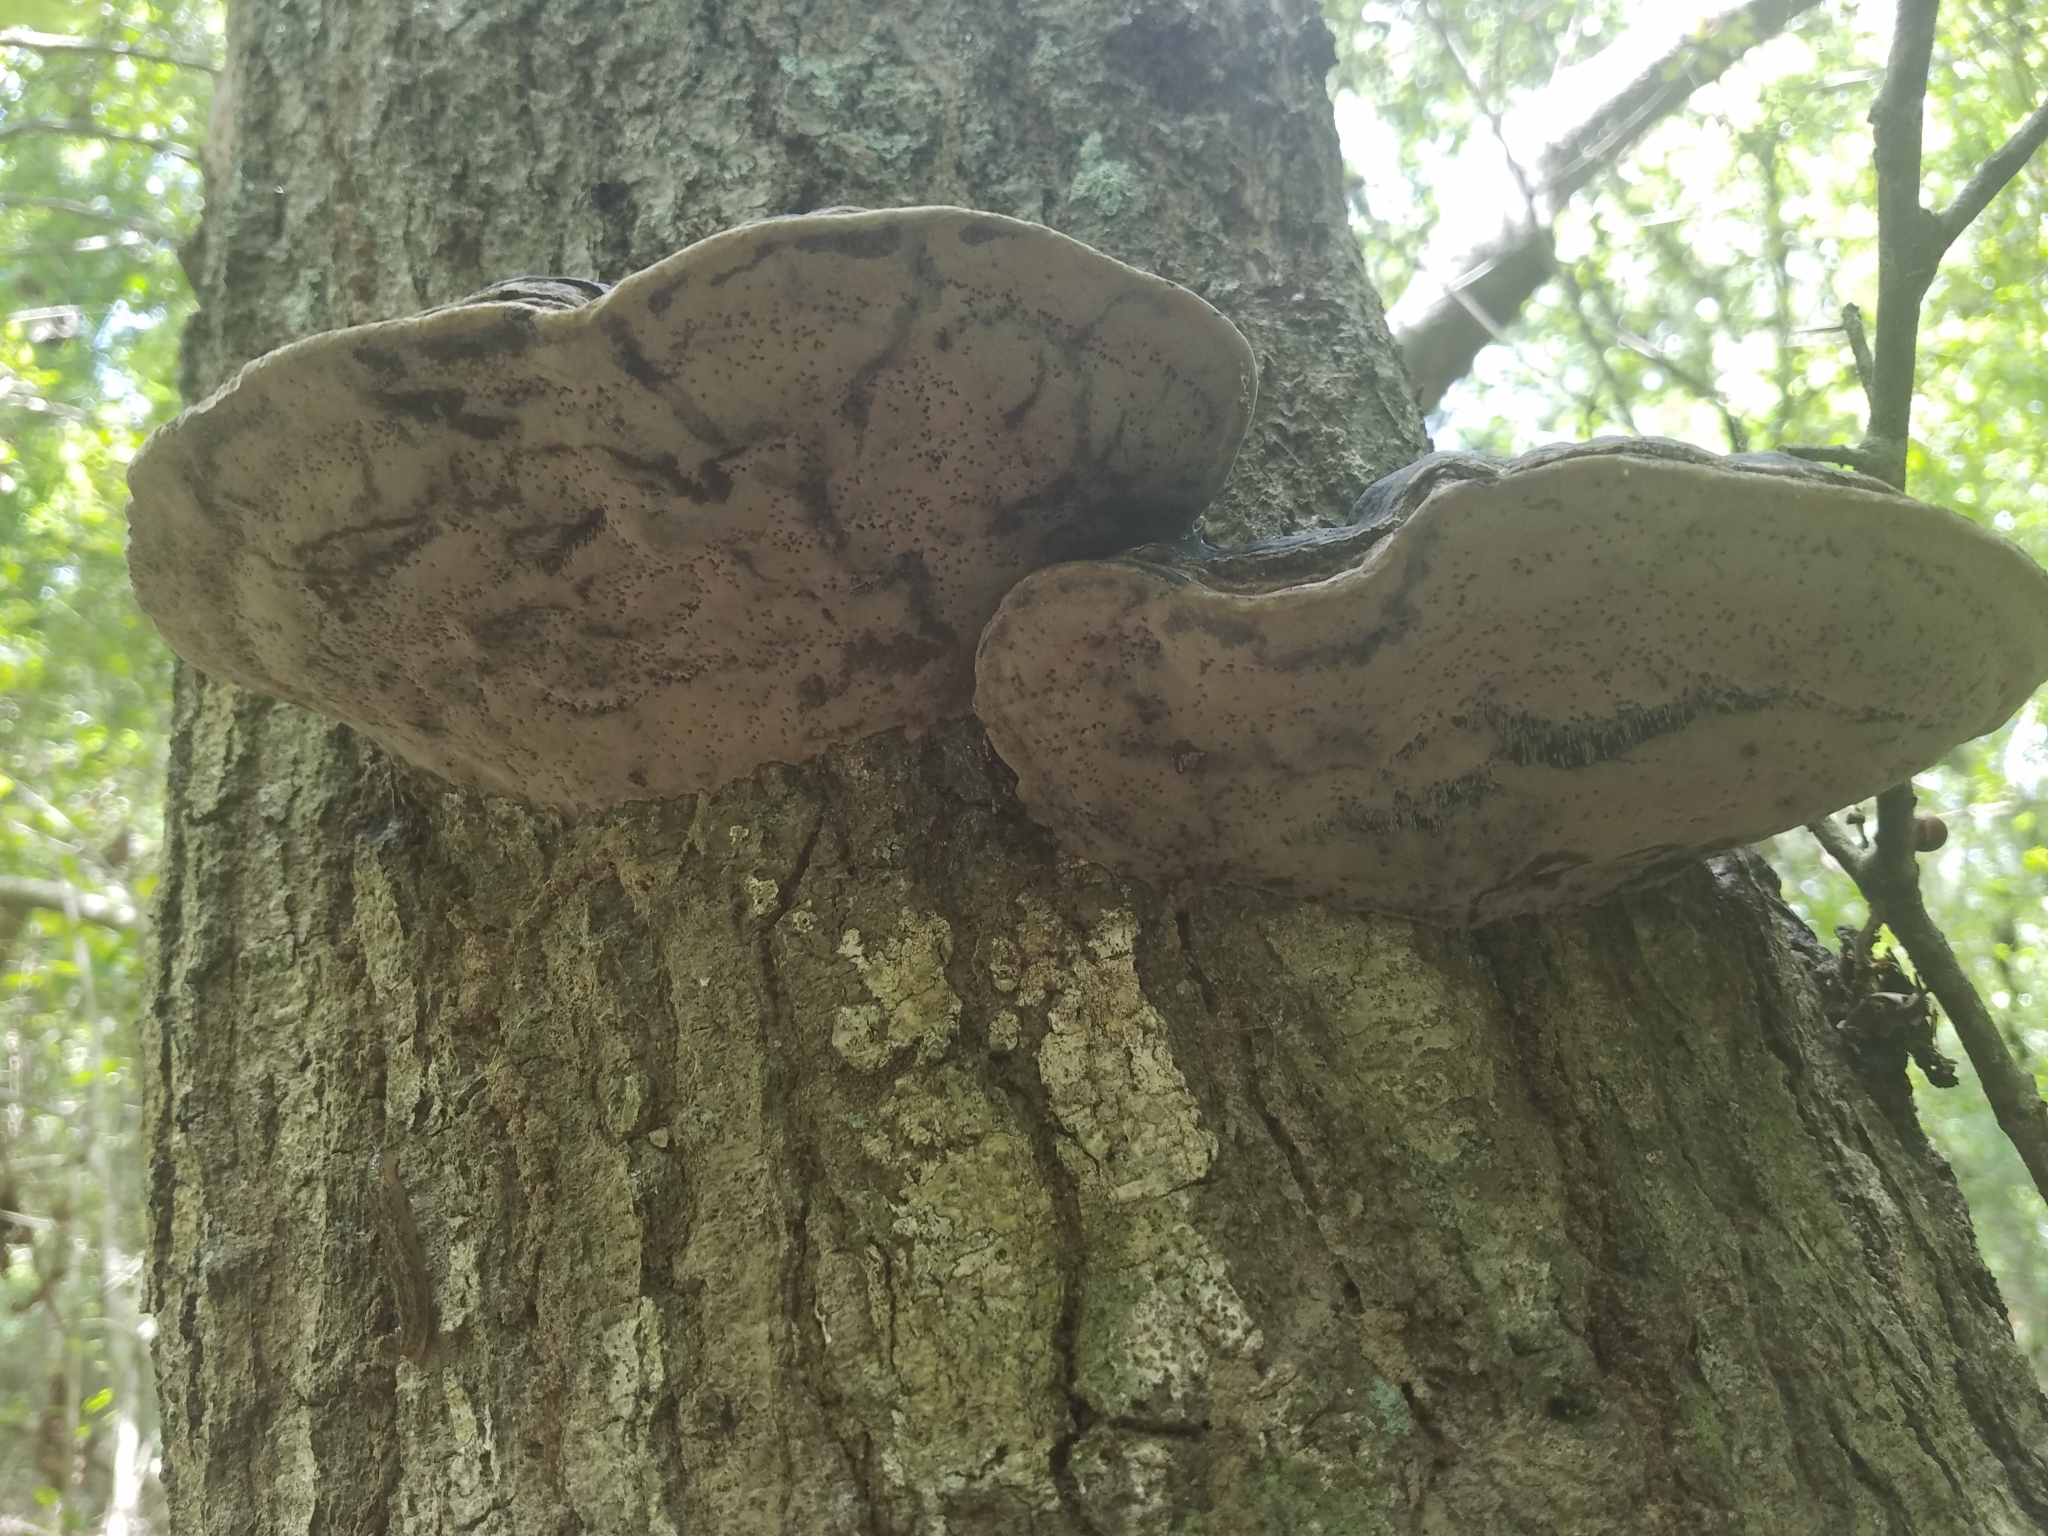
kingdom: Fungi
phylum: Basidiomycota
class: Agaricomycetes
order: Hymenochaetales
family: Hymenochaetaceae
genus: Phellinus
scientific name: Phellinus igniarius
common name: Willow bracket
